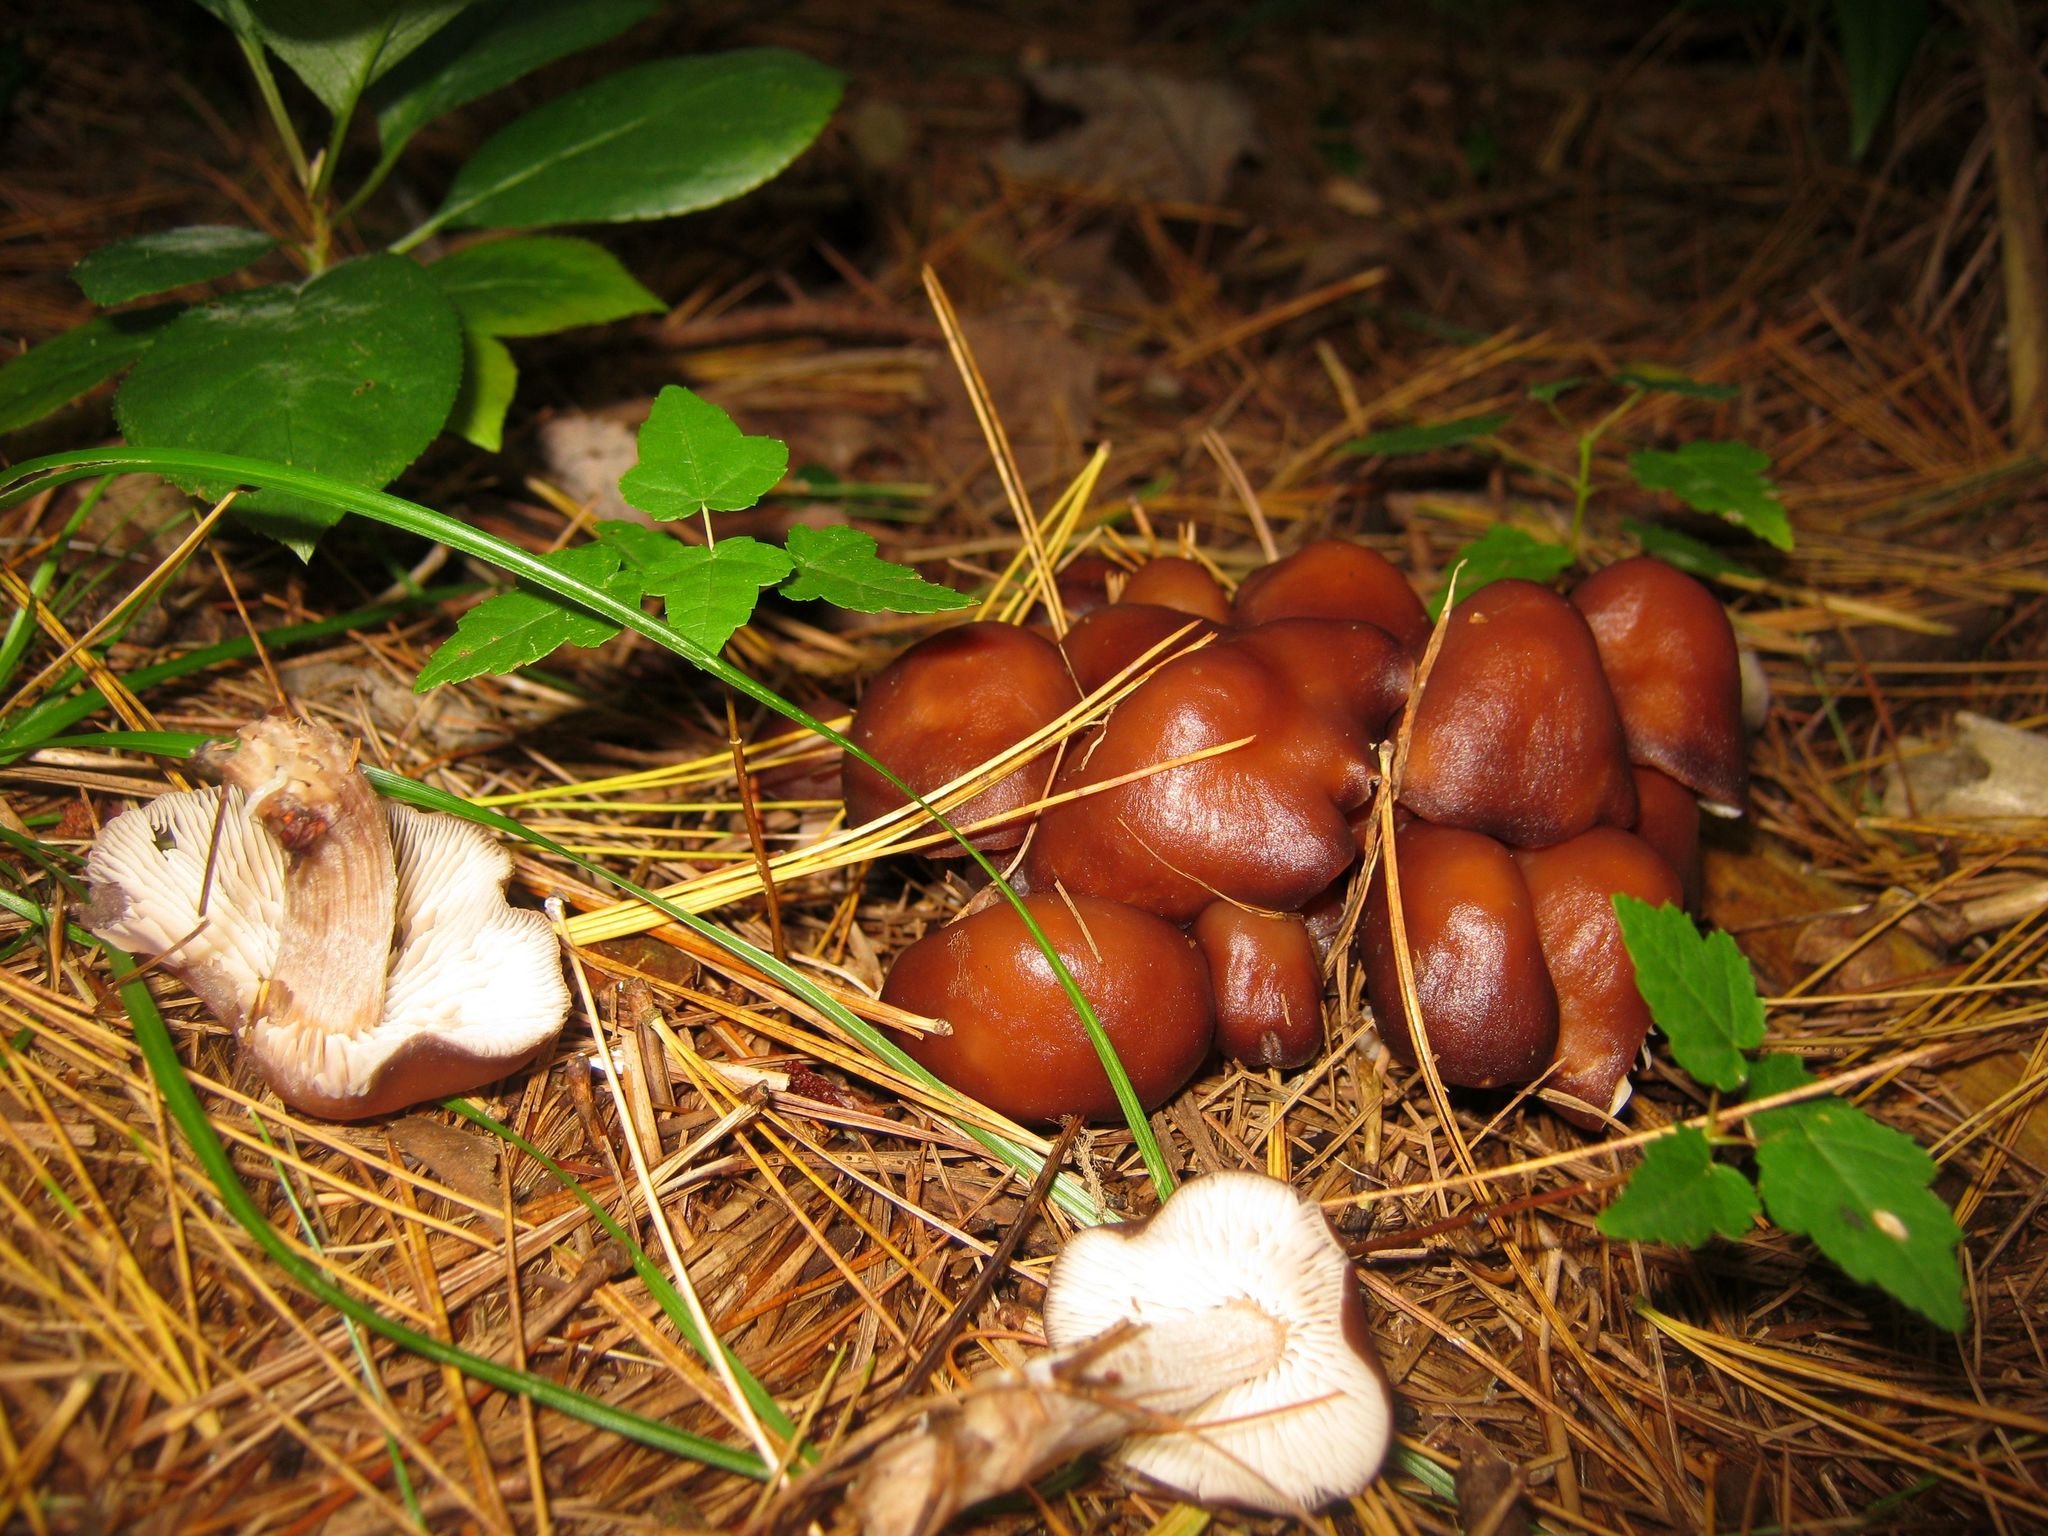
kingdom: Fungi
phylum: Basidiomycota
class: Agaricomycetes
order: Agaricales
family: Omphalotaceae
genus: Rhodocollybia
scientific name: Rhodocollybia butyracea
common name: Butter cap
